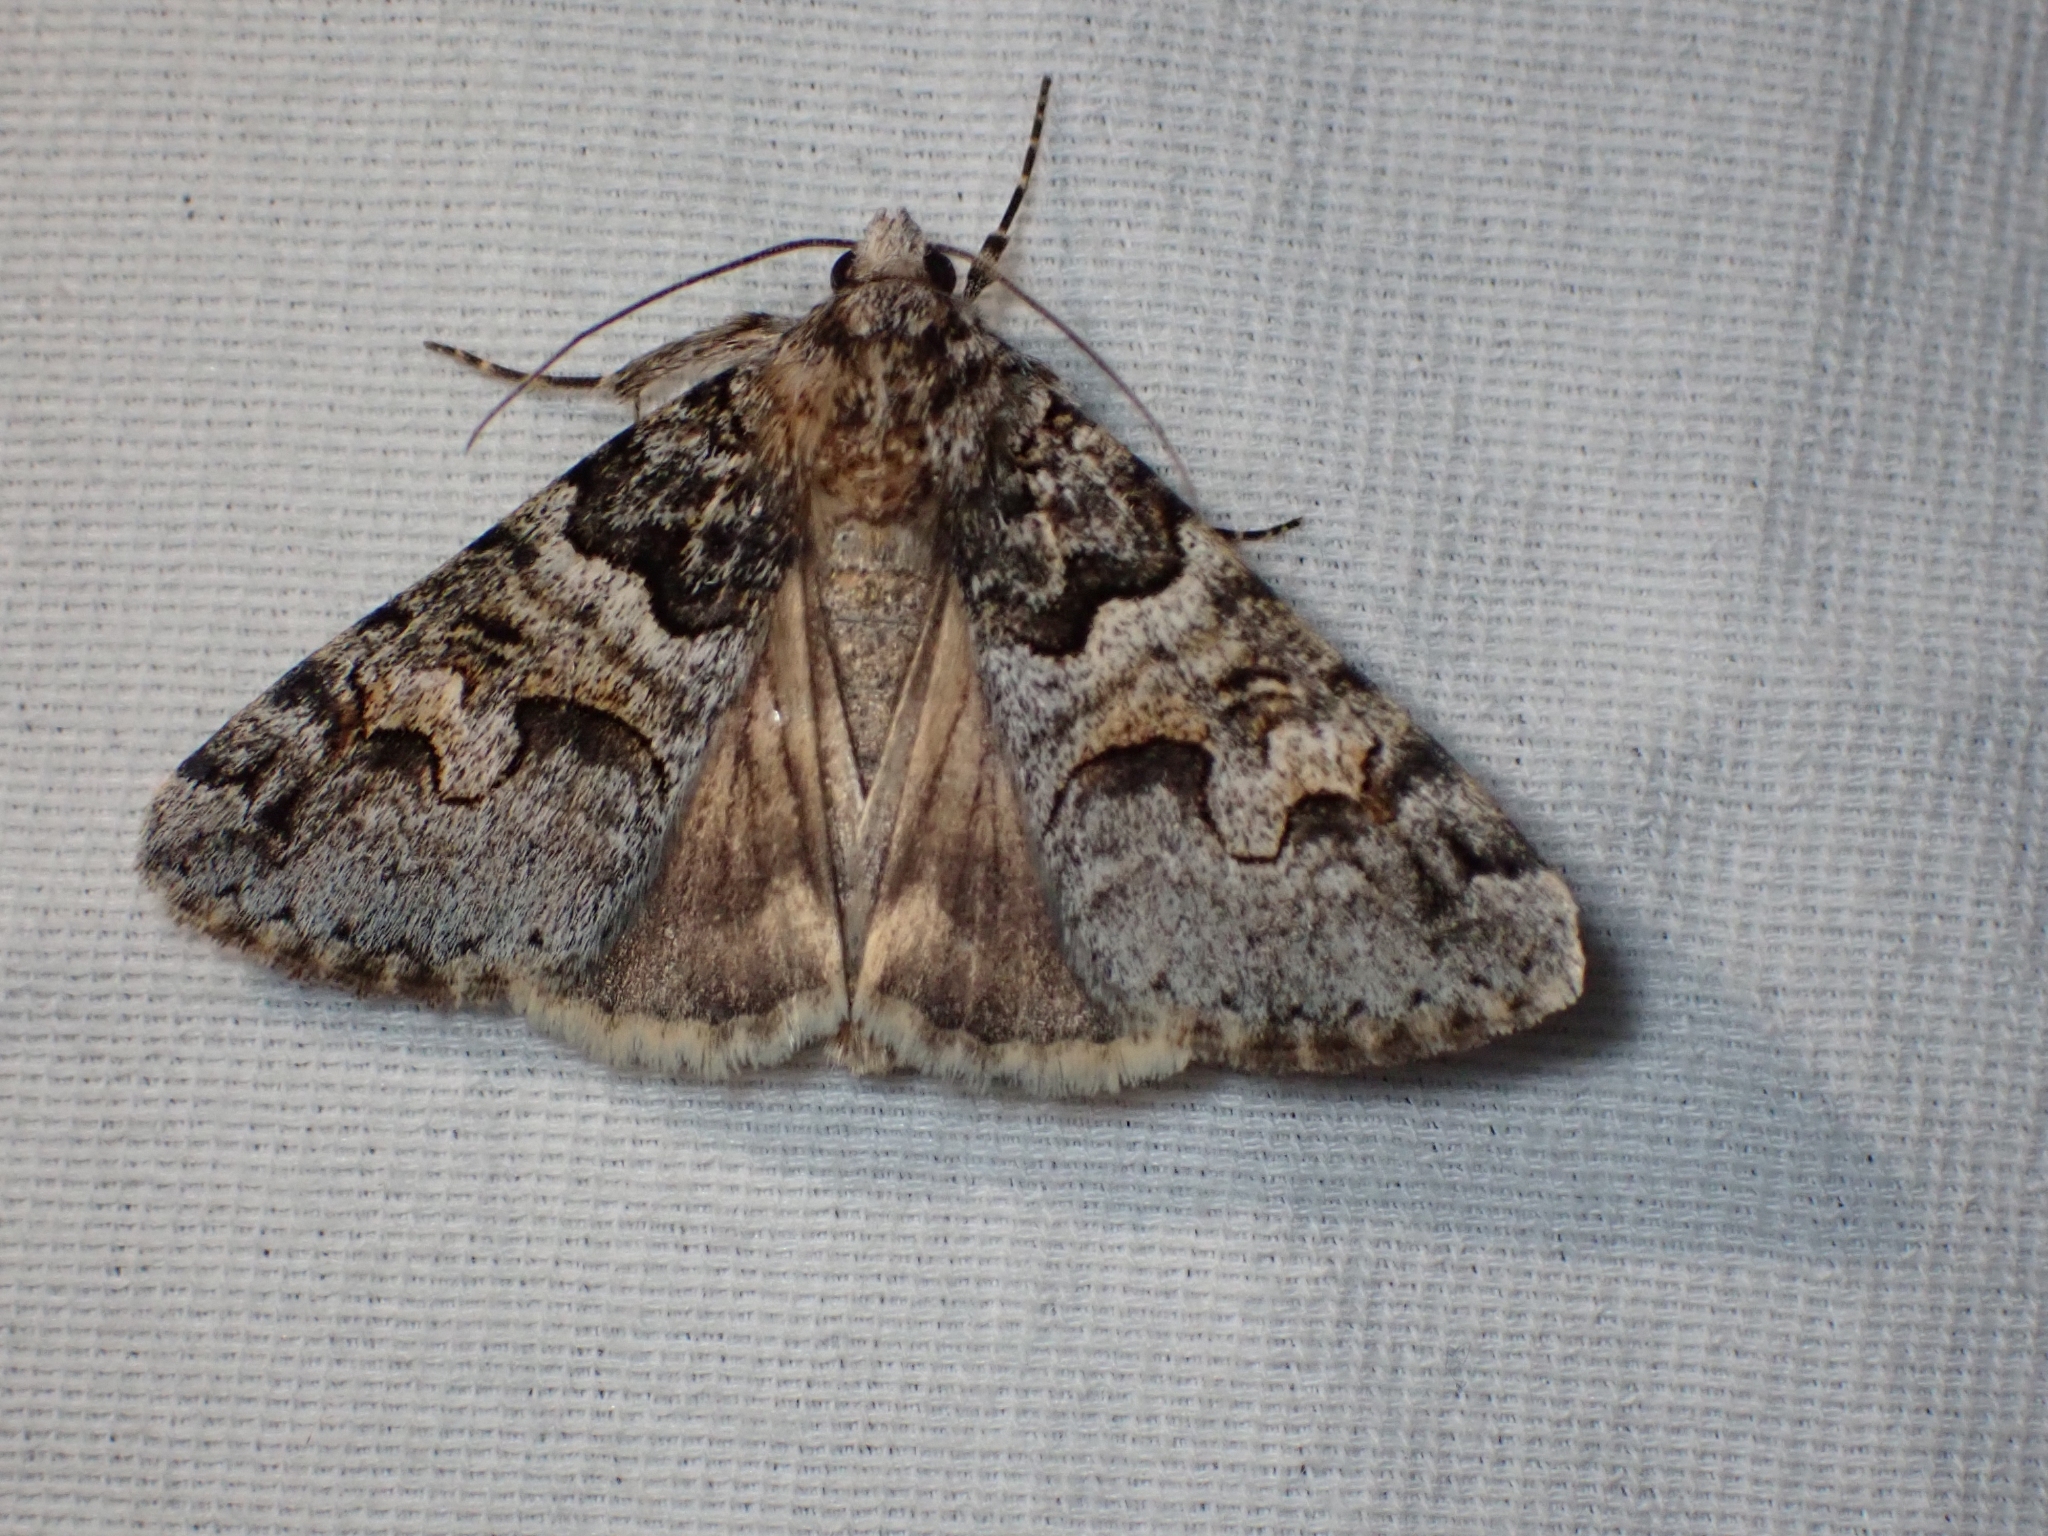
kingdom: Animalia
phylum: Arthropoda
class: Insecta
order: Lepidoptera
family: Erebidae
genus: Drasteria
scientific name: Drasteria sabulosa
